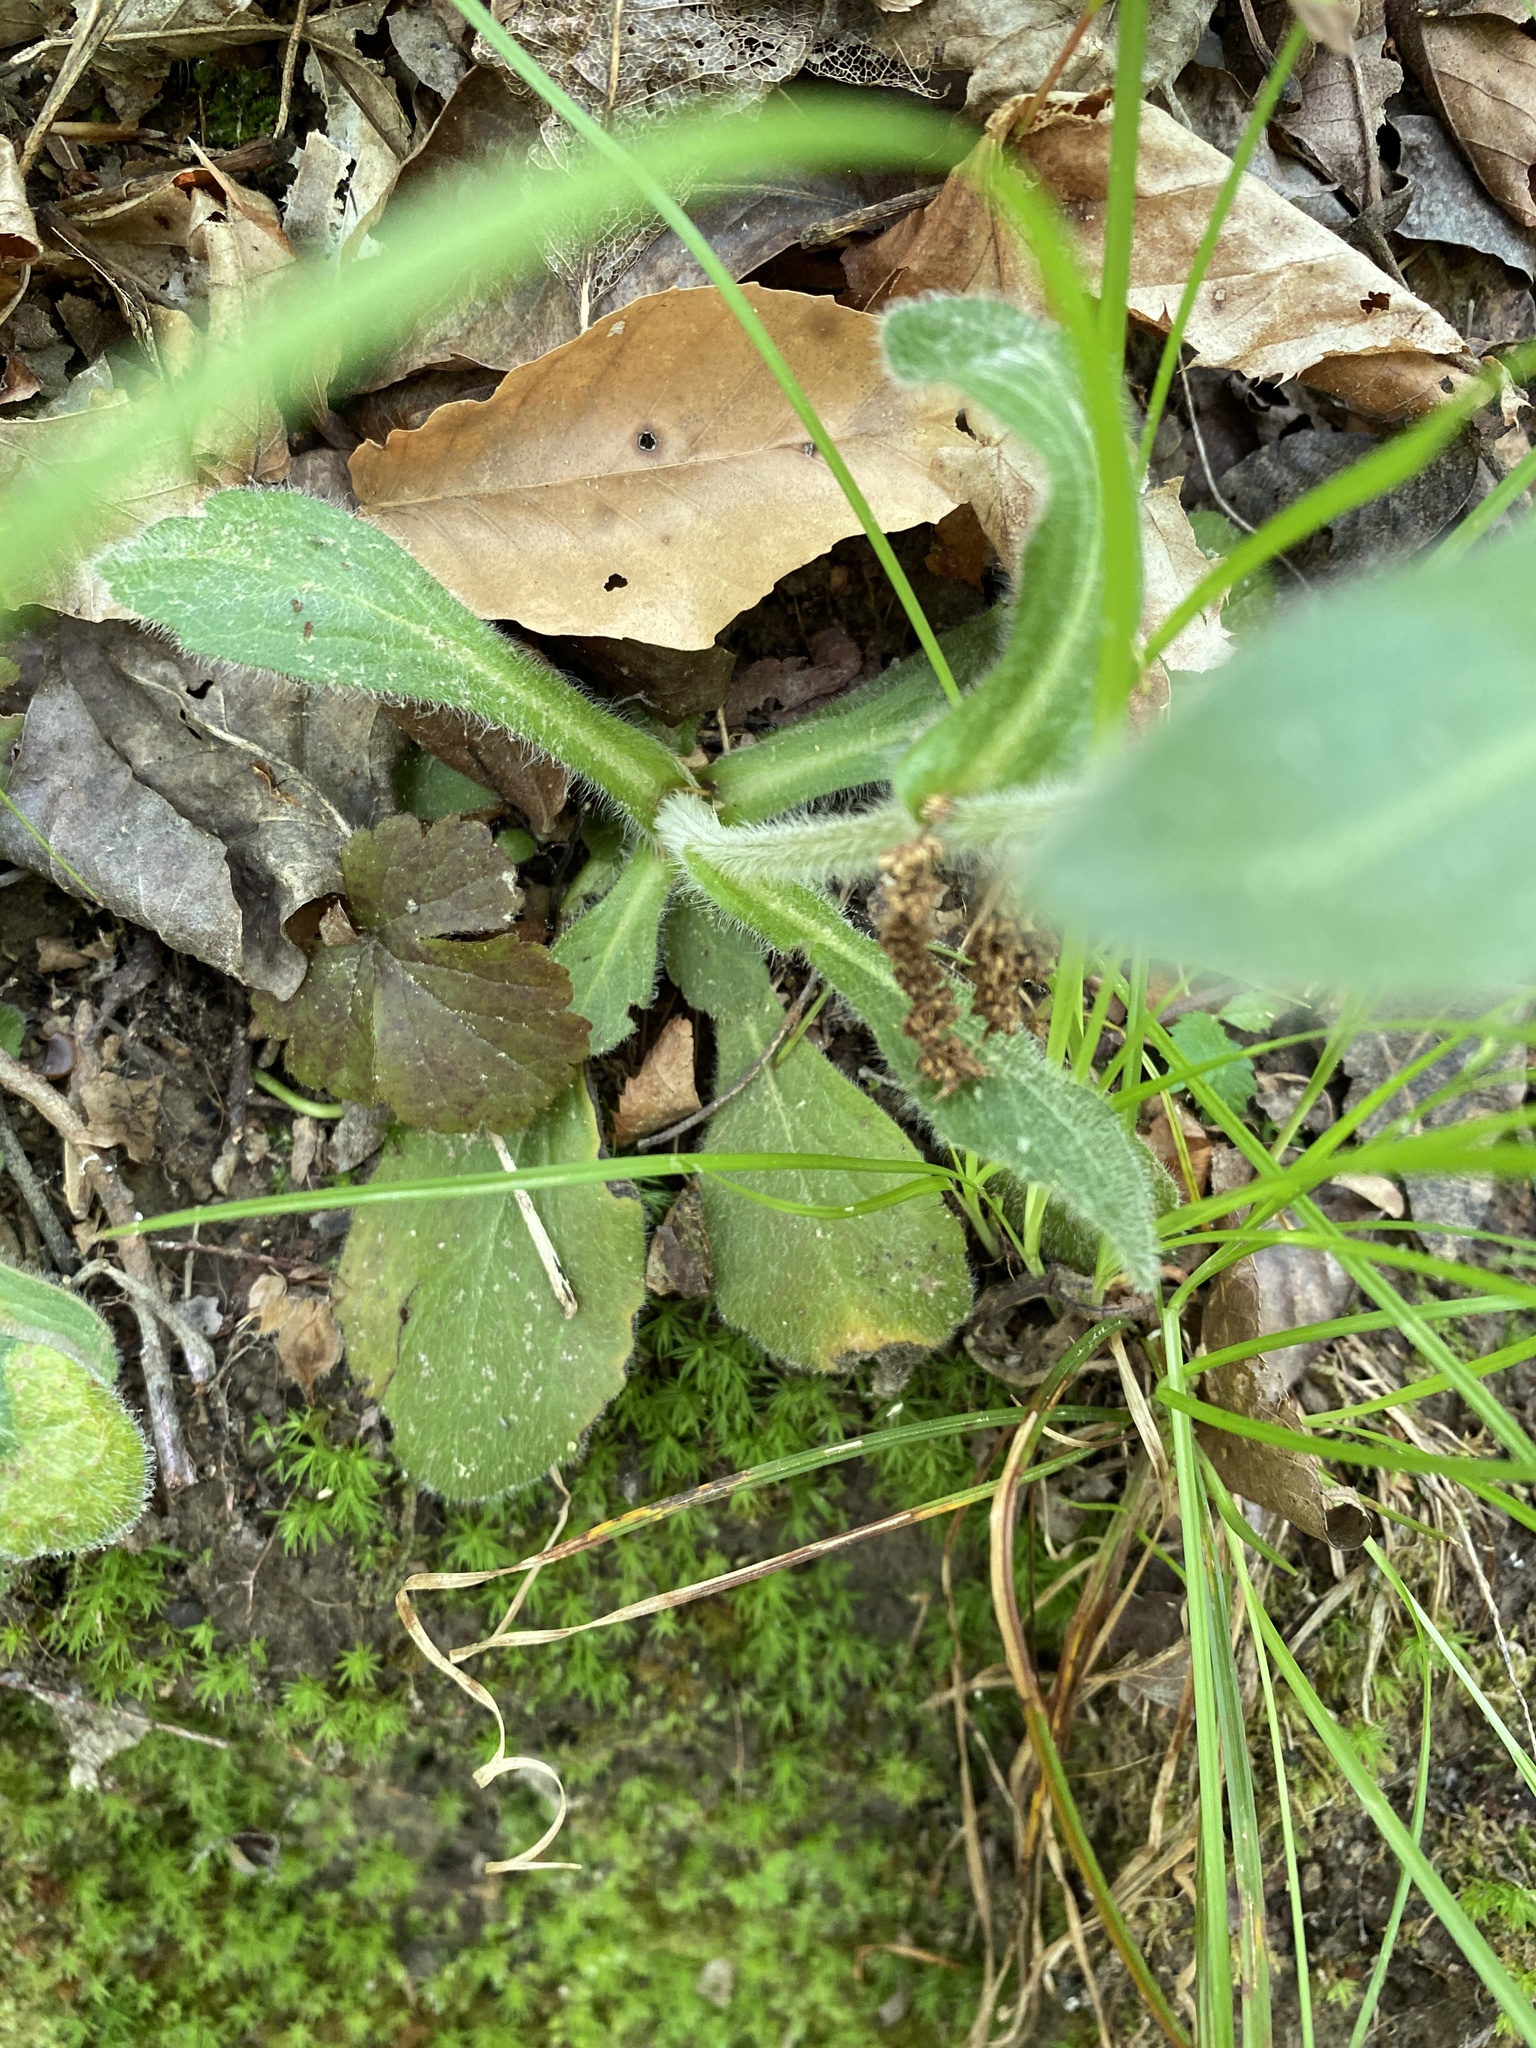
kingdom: Plantae
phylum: Tracheophyta
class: Magnoliopsida
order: Asterales
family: Asteraceae
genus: Erigeron
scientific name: Erigeron pulchellus
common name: Hairy fleabane
